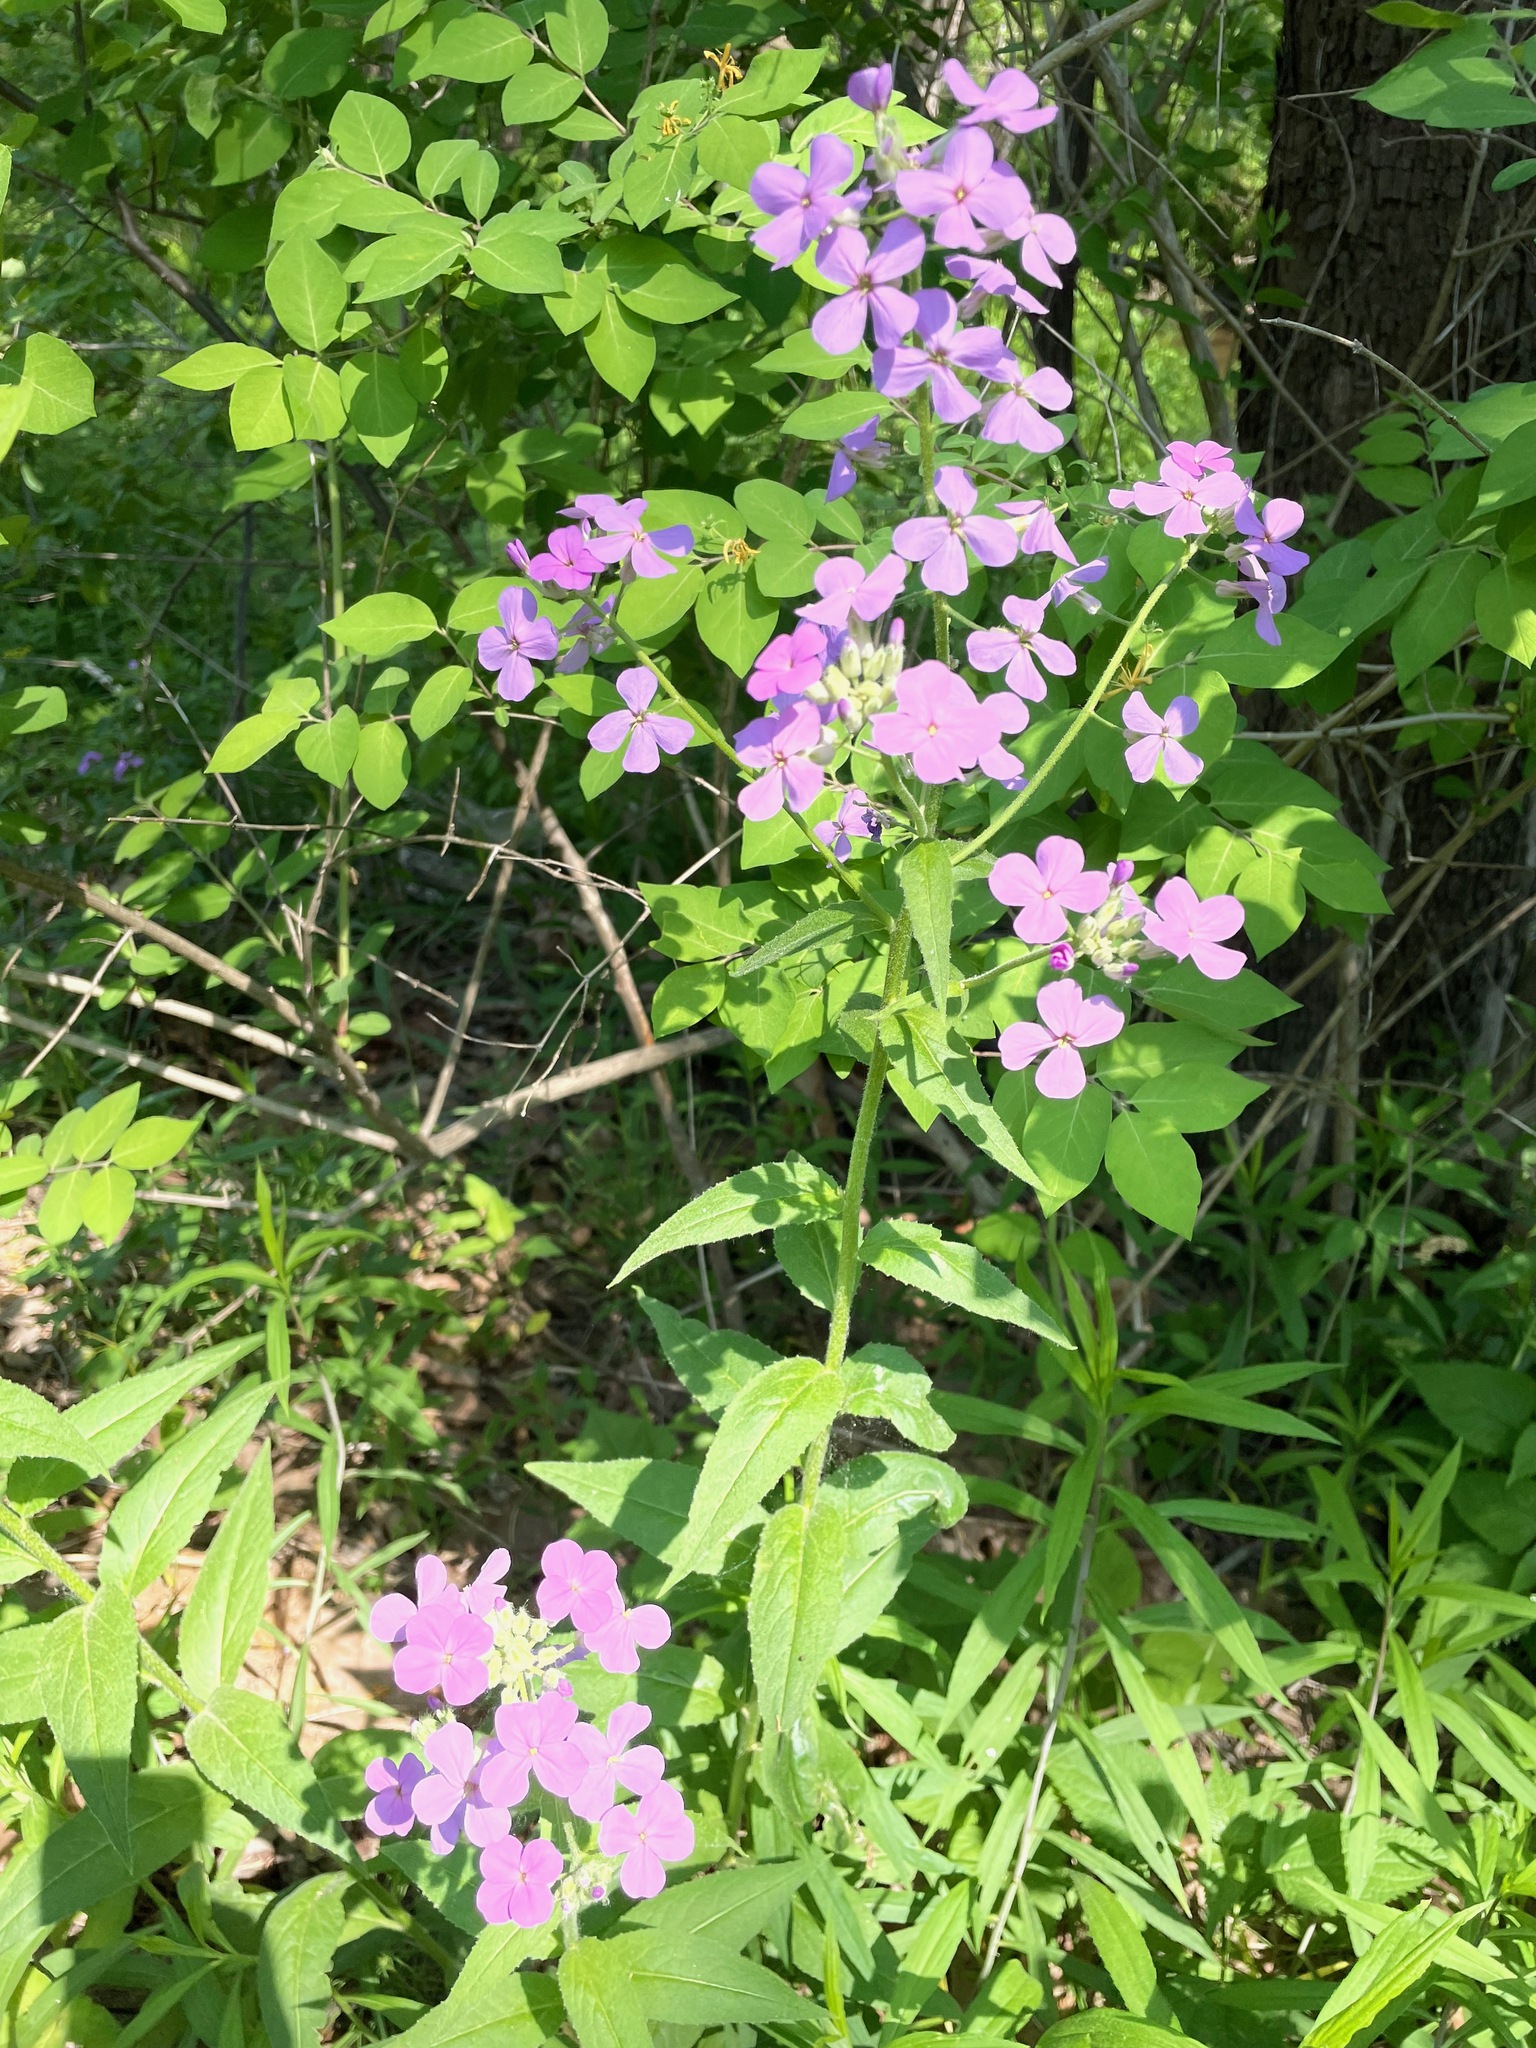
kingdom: Plantae
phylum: Tracheophyta
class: Magnoliopsida
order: Brassicales
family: Brassicaceae
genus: Hesperis
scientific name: Hesperis matronalis
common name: Dame's-violet
